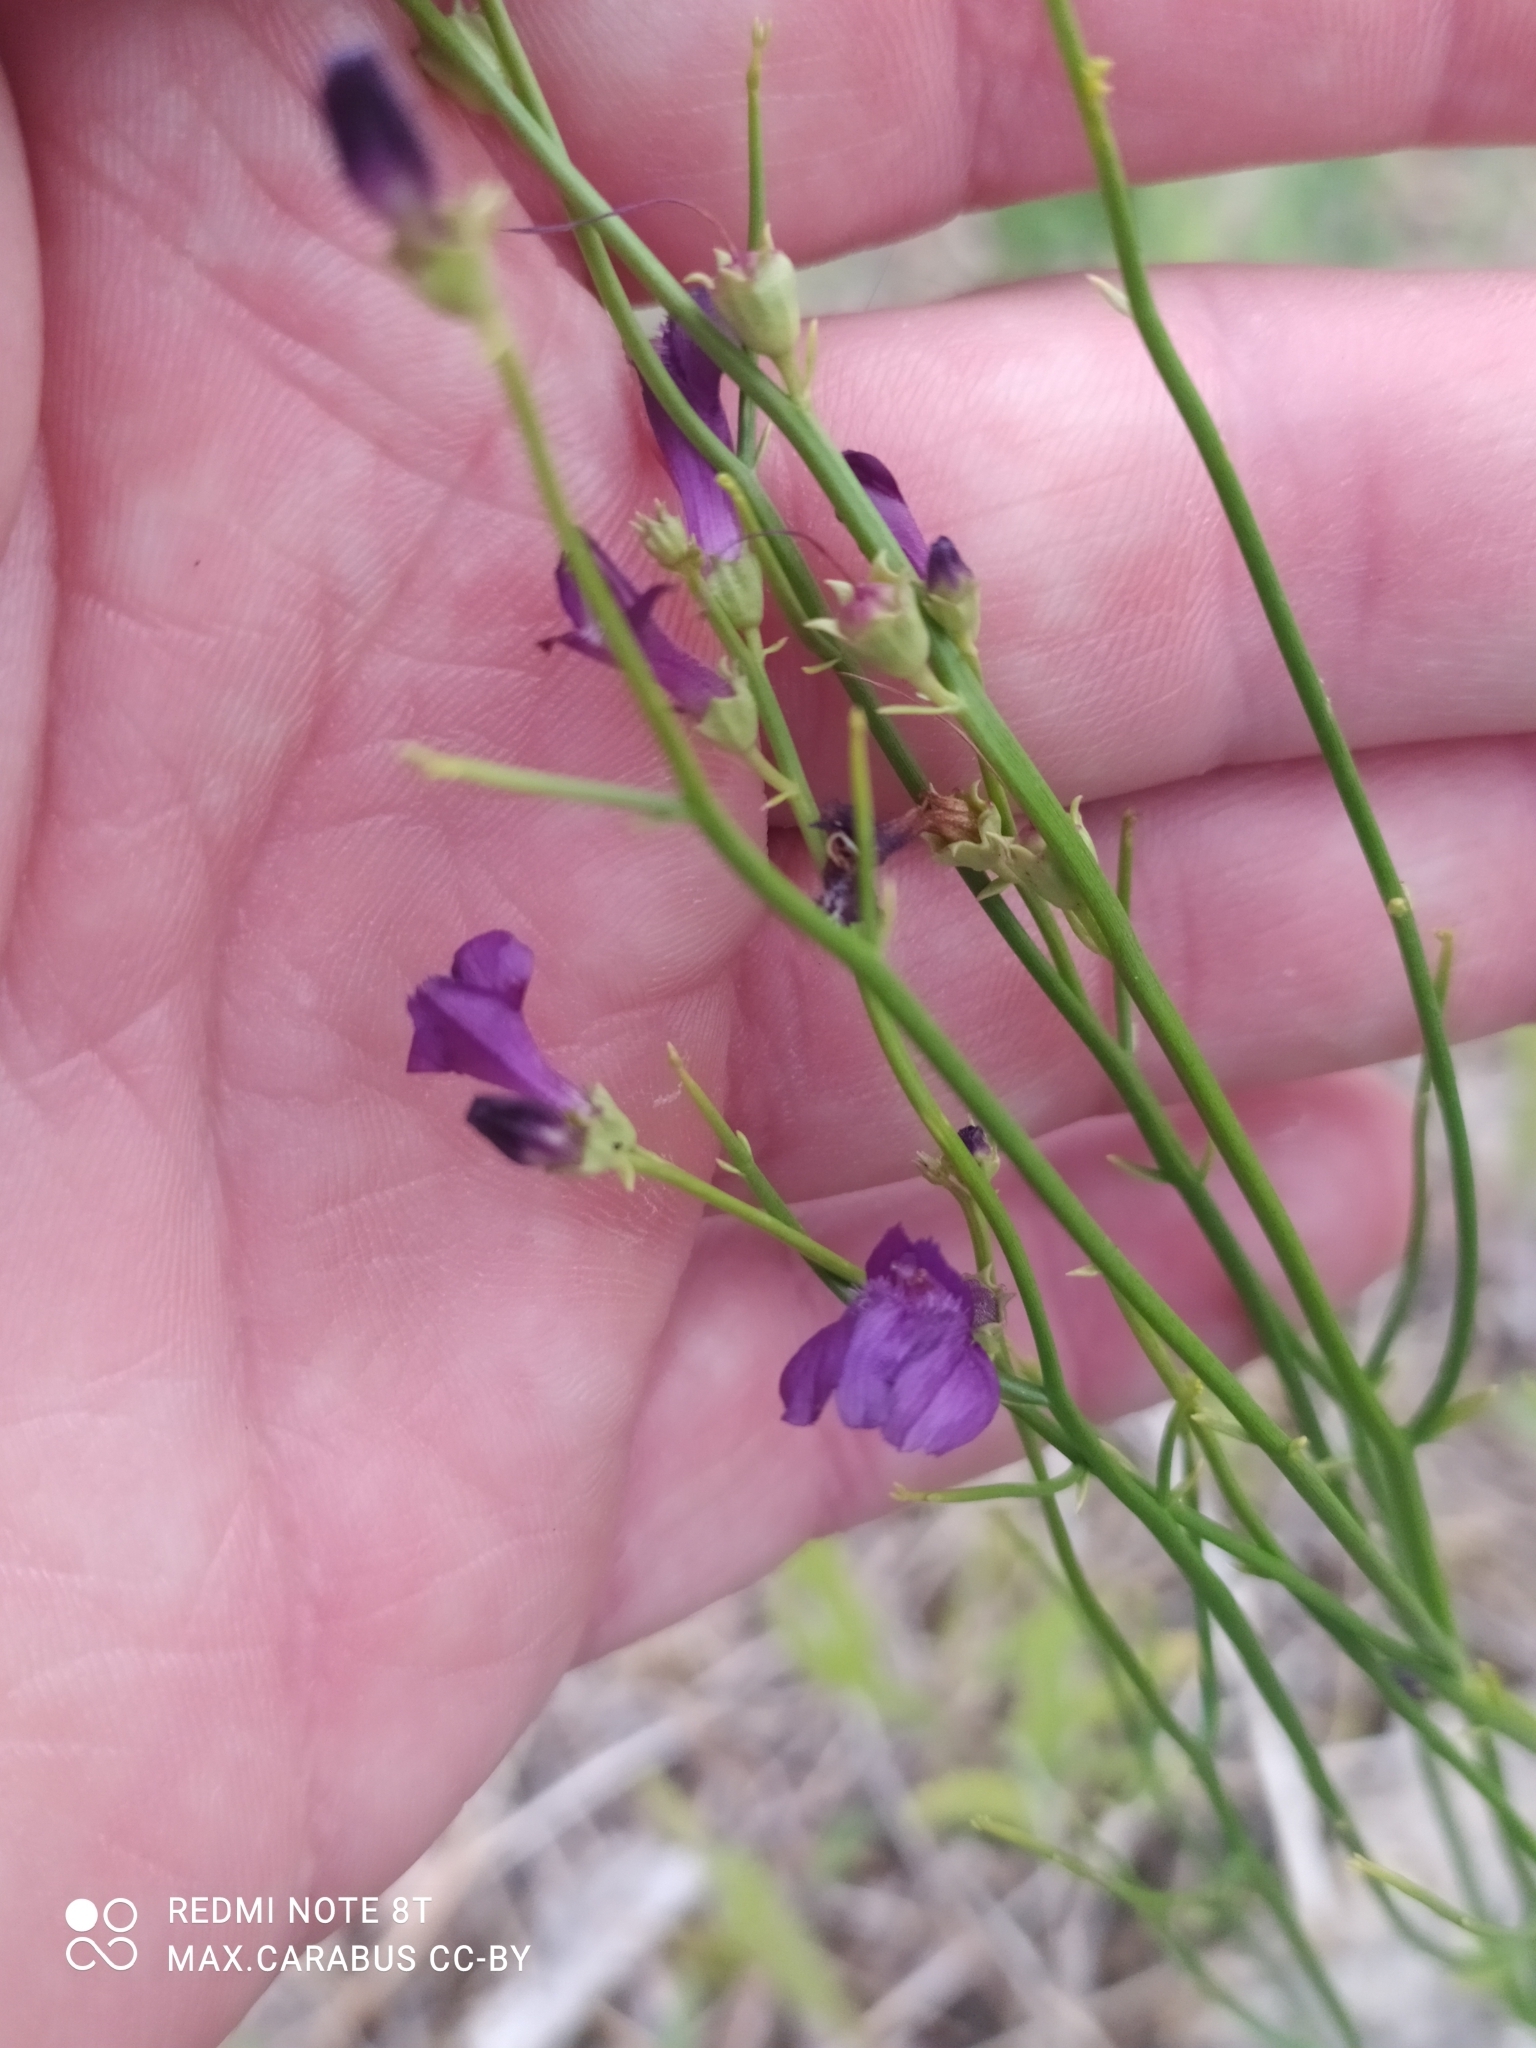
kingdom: Plantae
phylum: Tracheophyta
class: Magnoliopsida
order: Lamiales
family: Mazaceae
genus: Dodartia
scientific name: Dodartia orientalis
